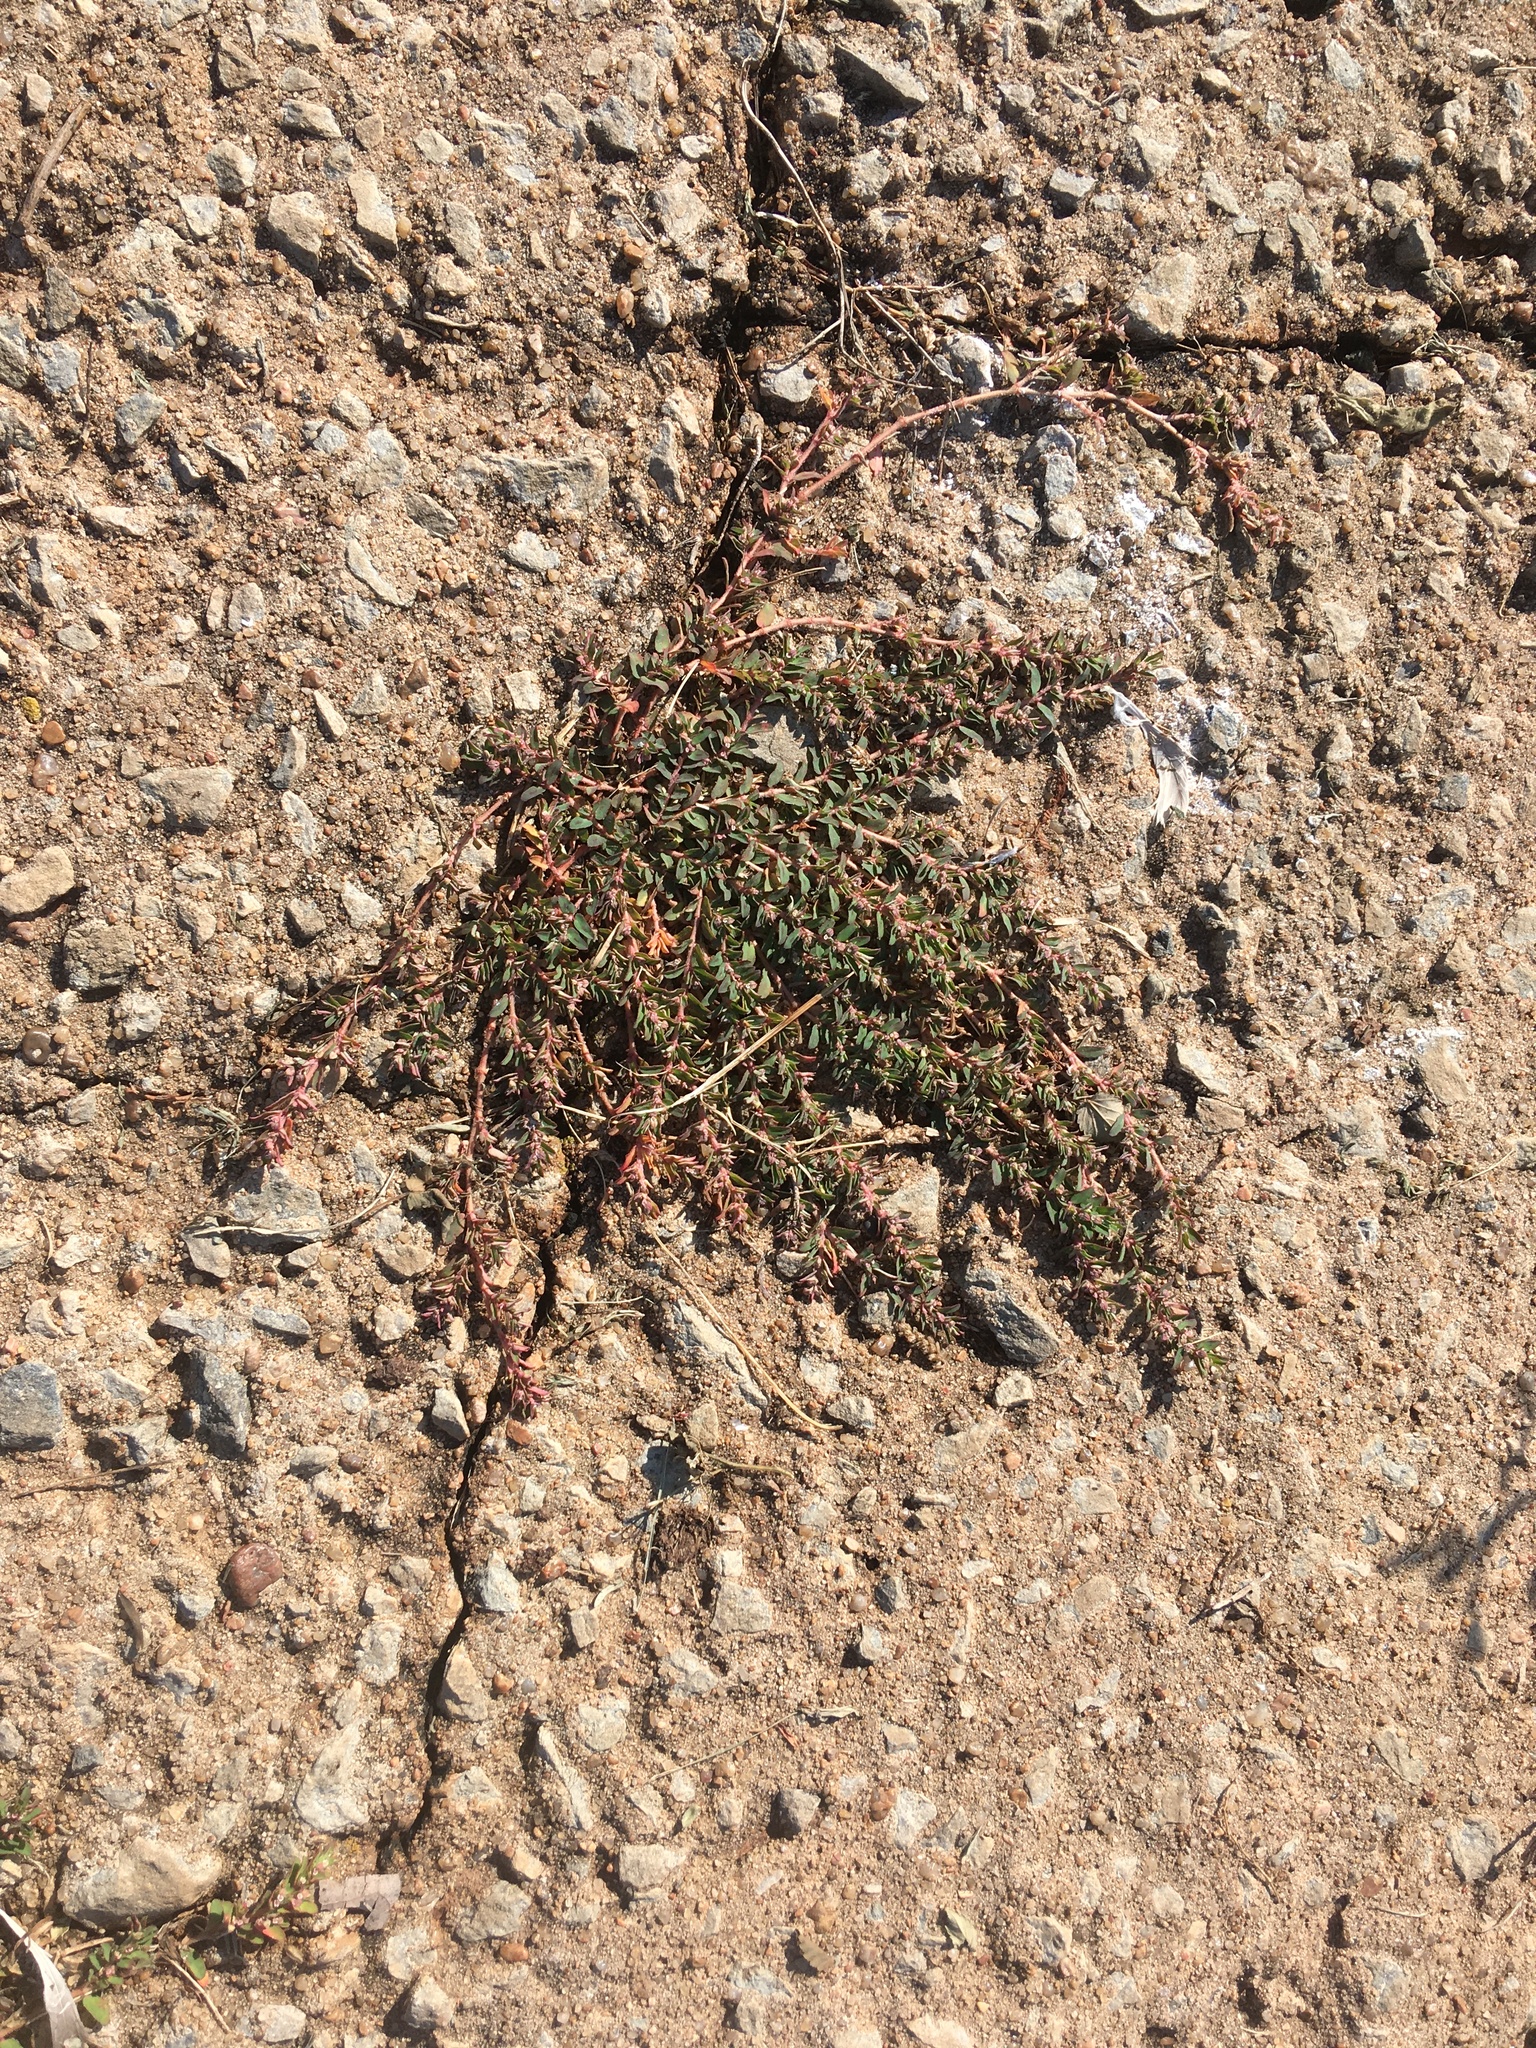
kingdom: Plantae
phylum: Tracheophyta
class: Magnoliopsida
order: Malpighiales
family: Euphorbiaceae
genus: Euphorbia
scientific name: Euphorbia maculata
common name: Spotted spurge
